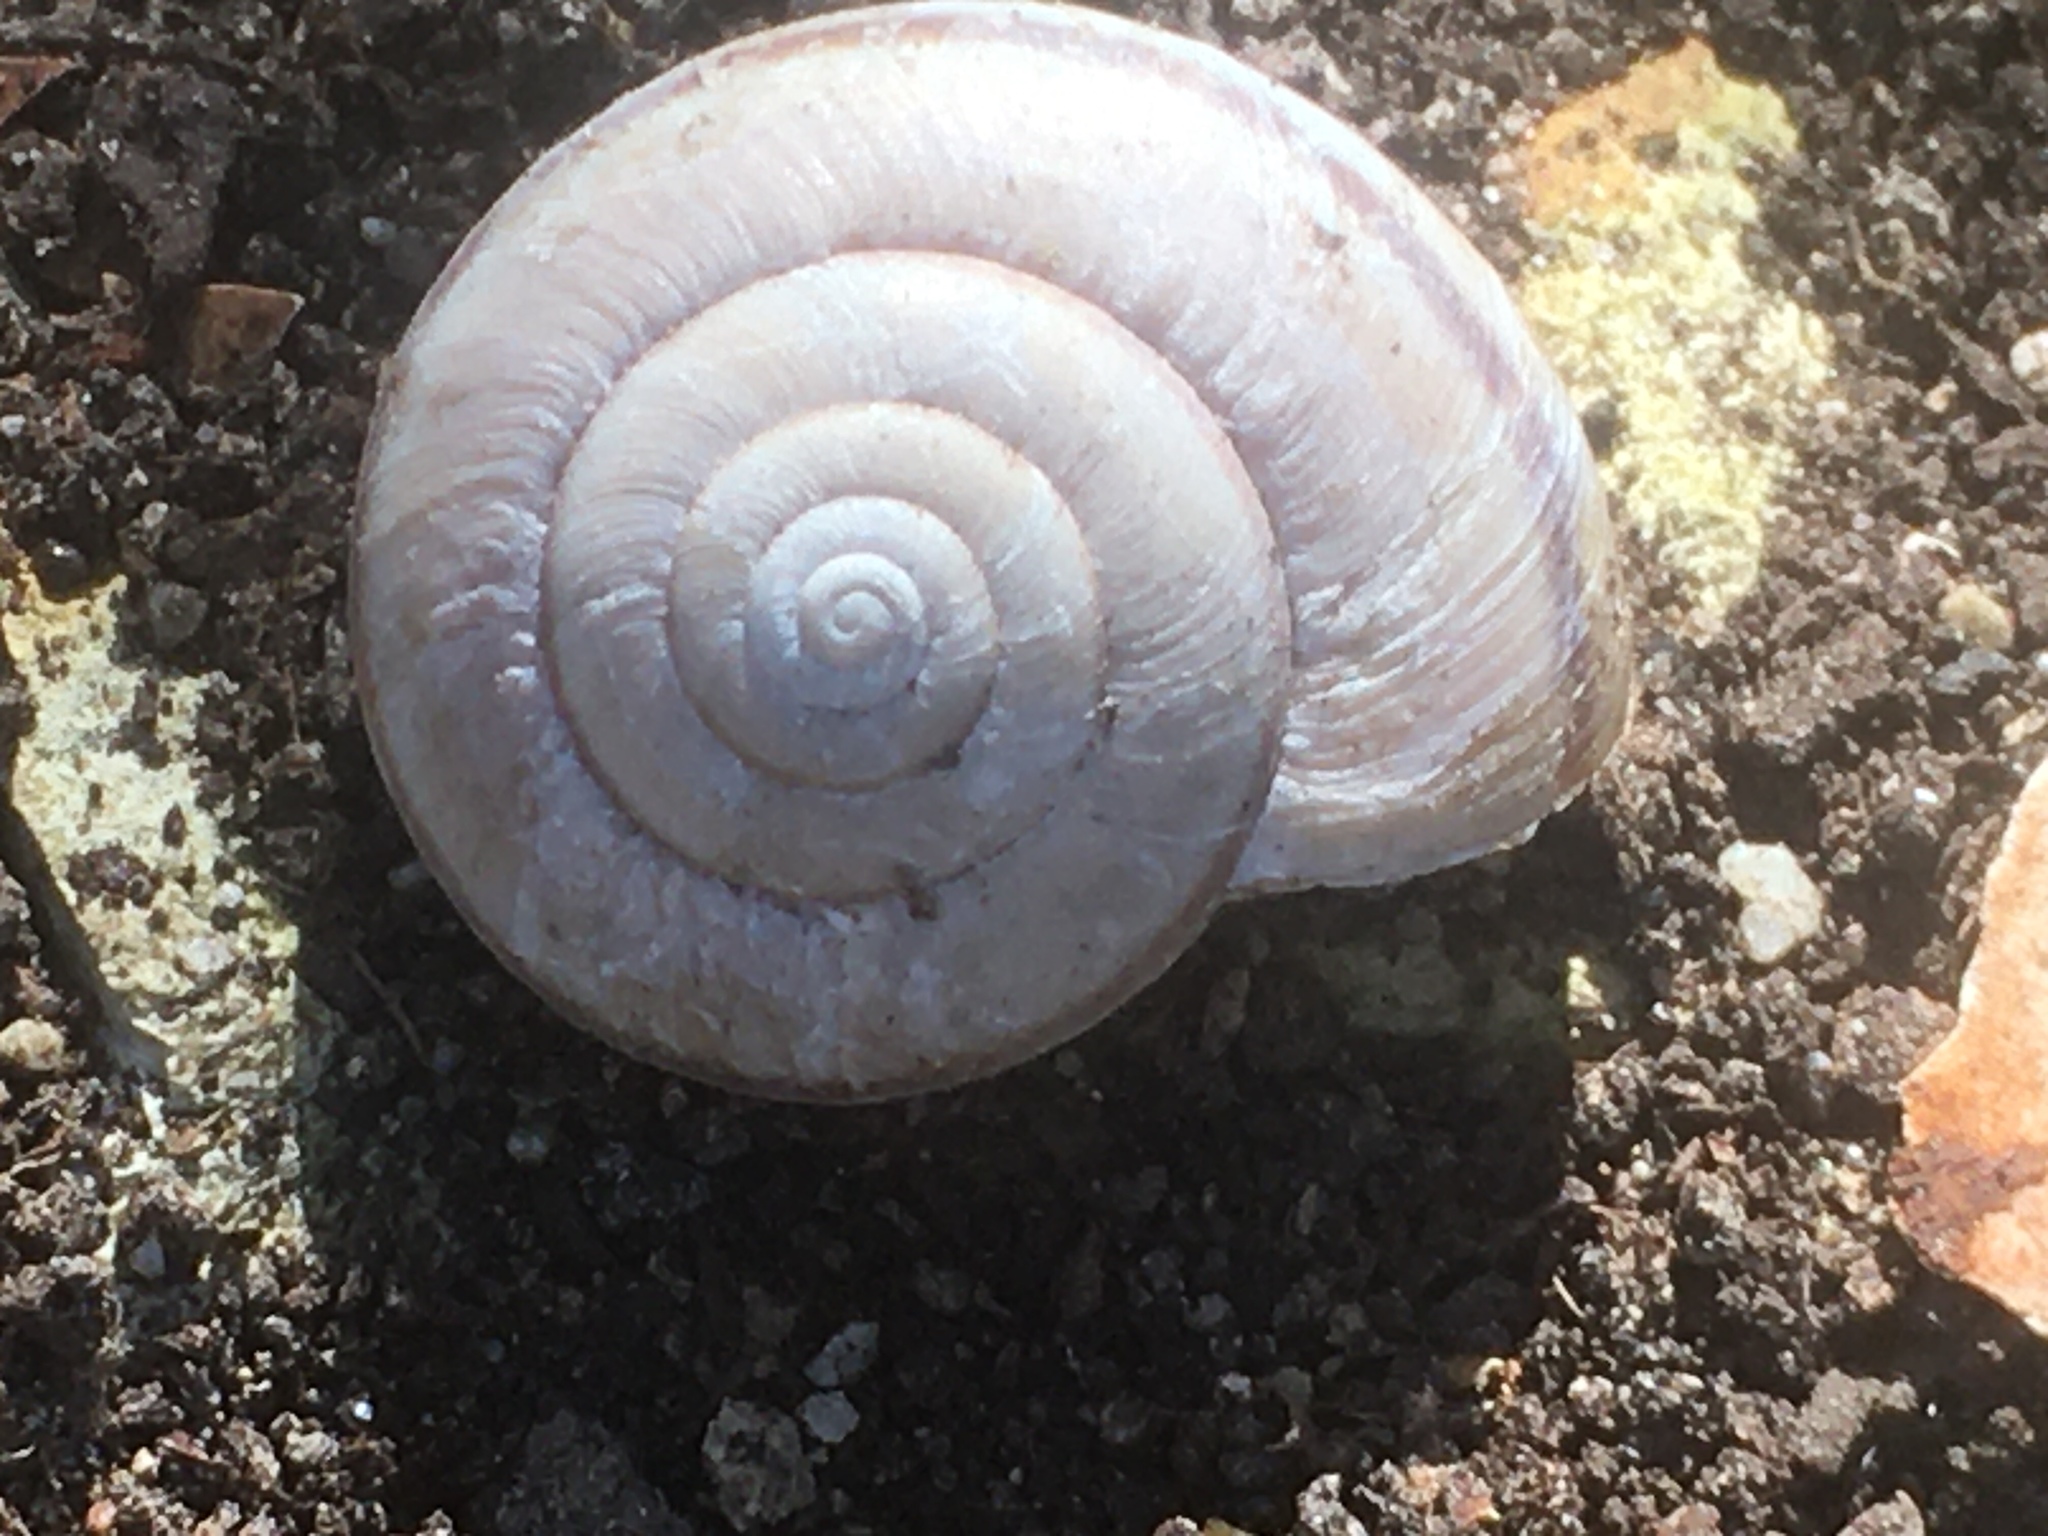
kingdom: Animalia
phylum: Mollusca
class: Gastropoda
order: Stylommatophora
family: Xanthonychidae
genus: Helminthoglypta
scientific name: Helminthoglypta traskii
